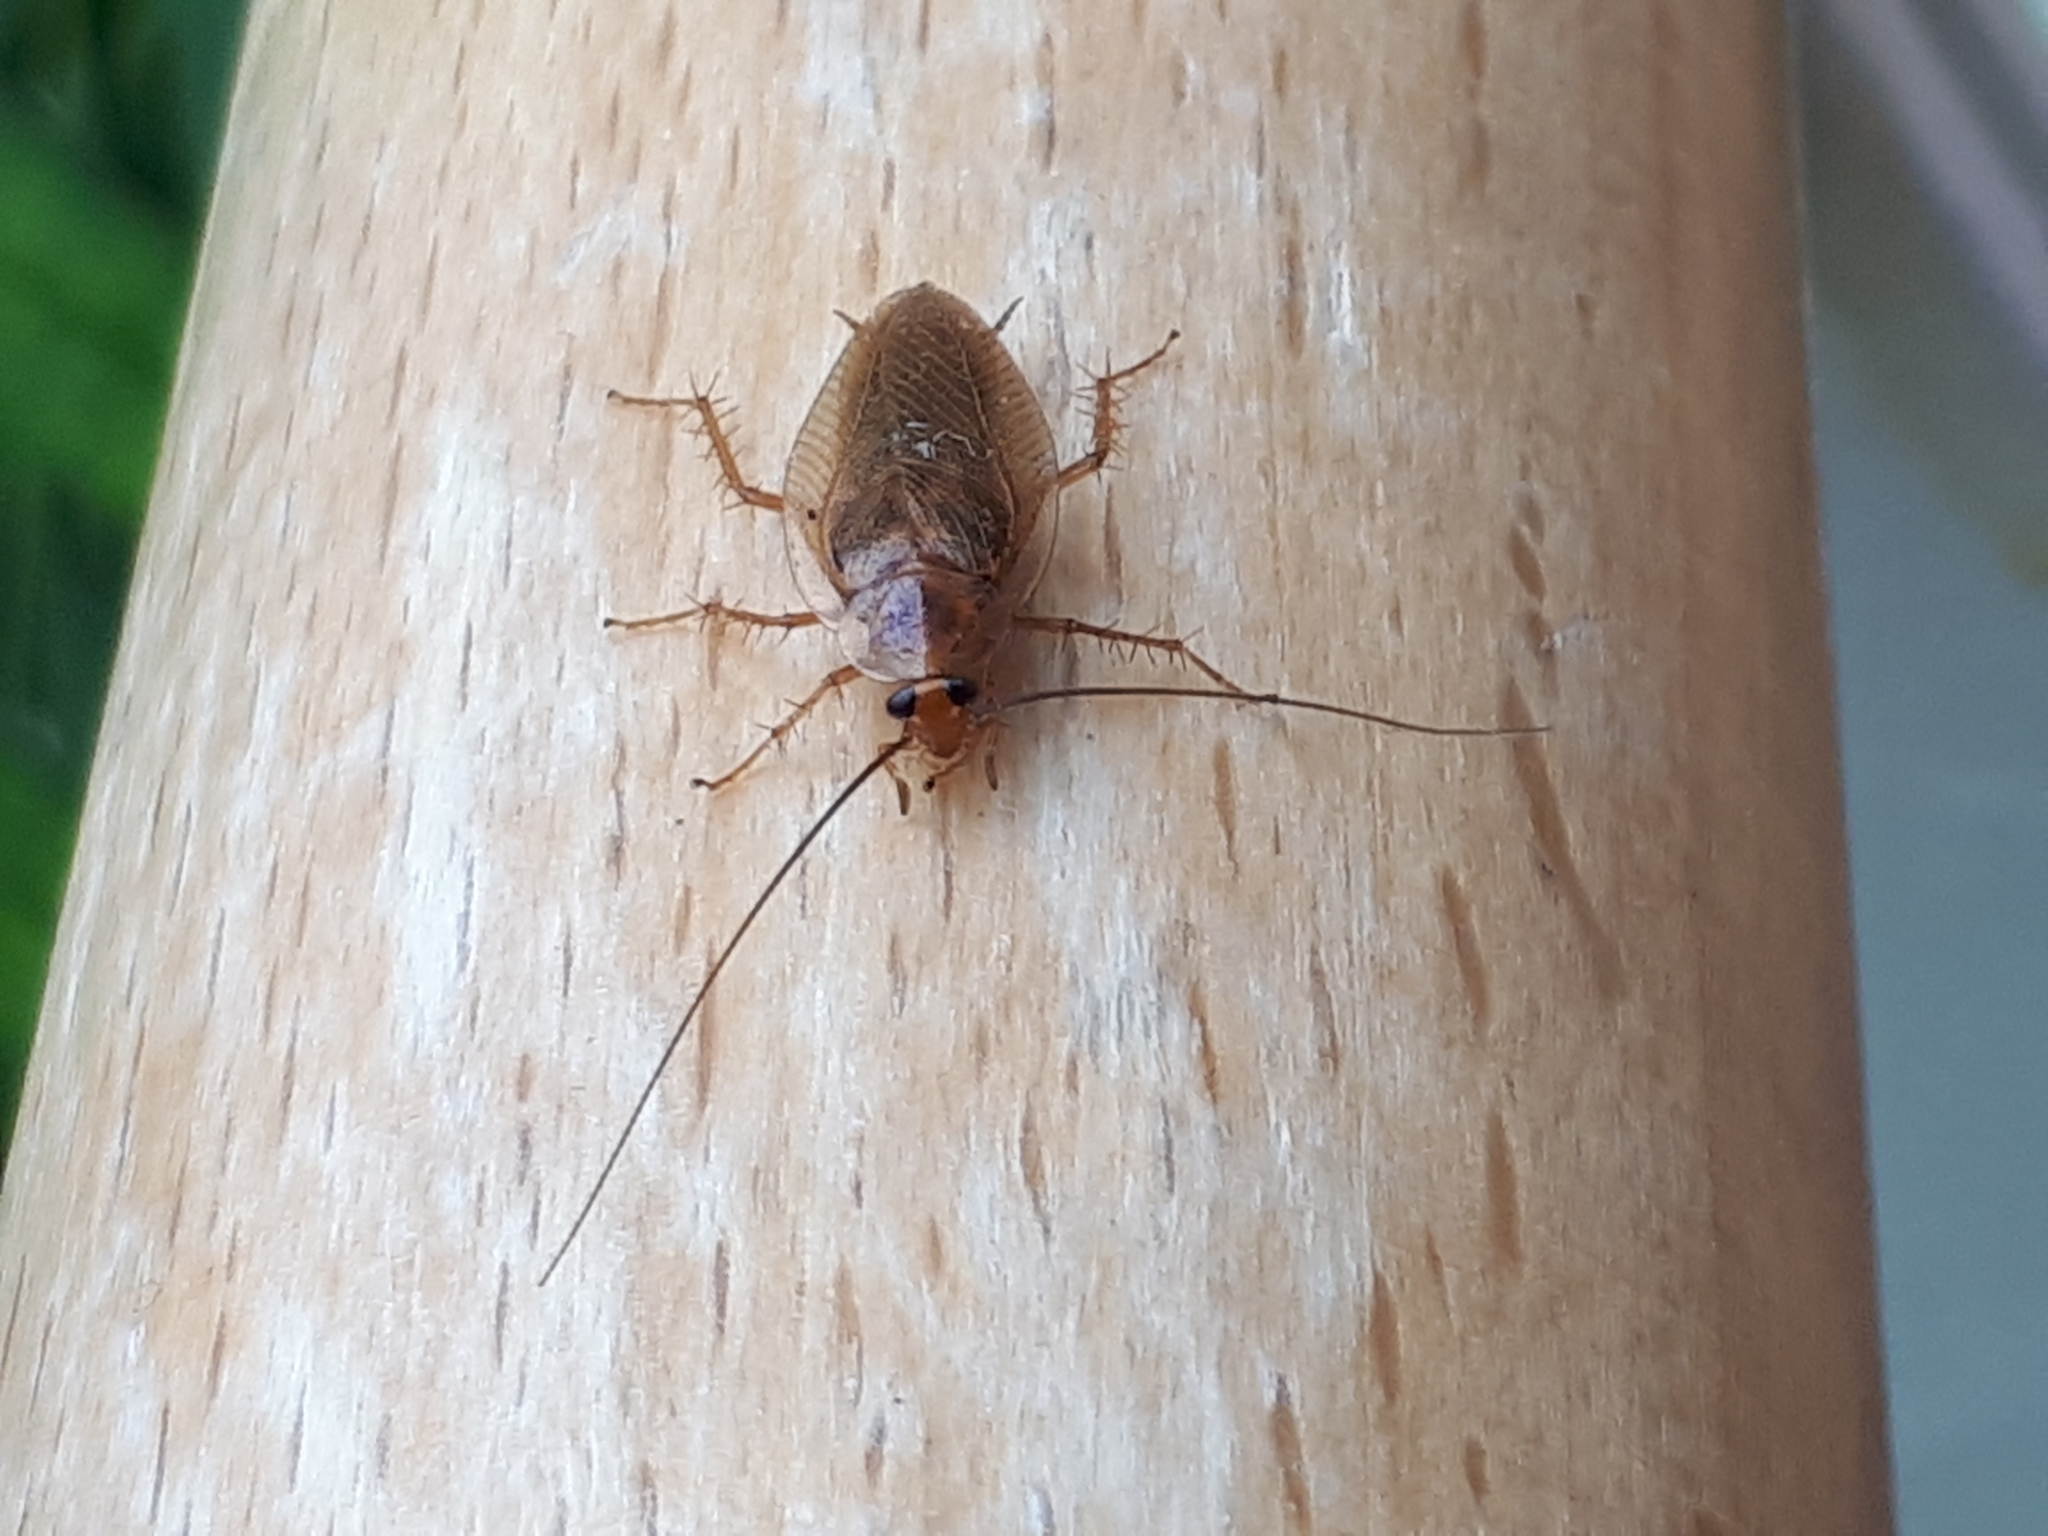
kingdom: Animalia
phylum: Arthropoda
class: Insecta
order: Blattodea
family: Ectobiidae
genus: Ectobius
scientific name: Ectobius vittiventris
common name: Garden cockroach
